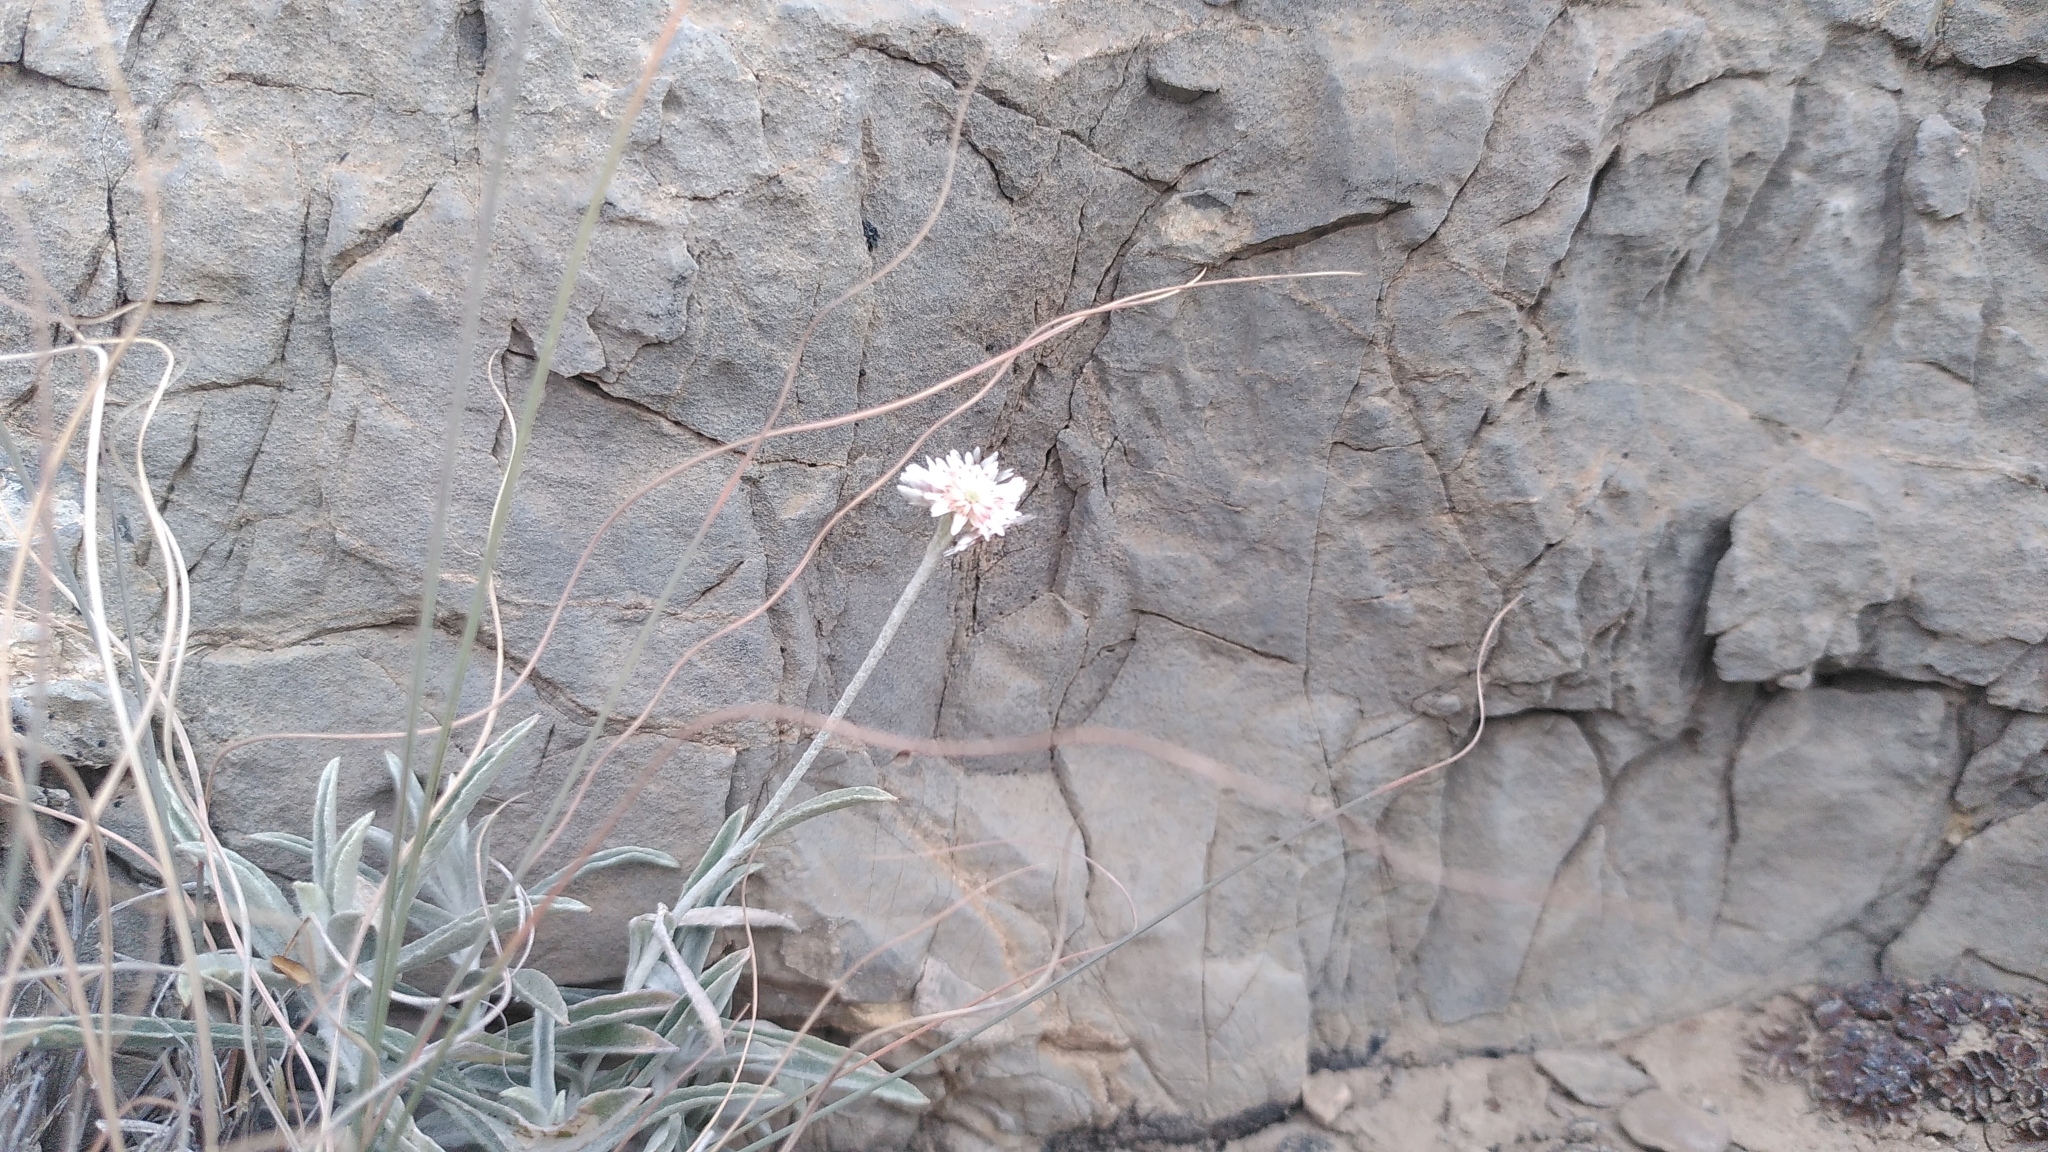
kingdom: Plantae
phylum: Tracheophyta
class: Magnoliopsida
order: Asterales
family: Asteraceae
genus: Helichrysum
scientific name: Helichrysum glumaceum
